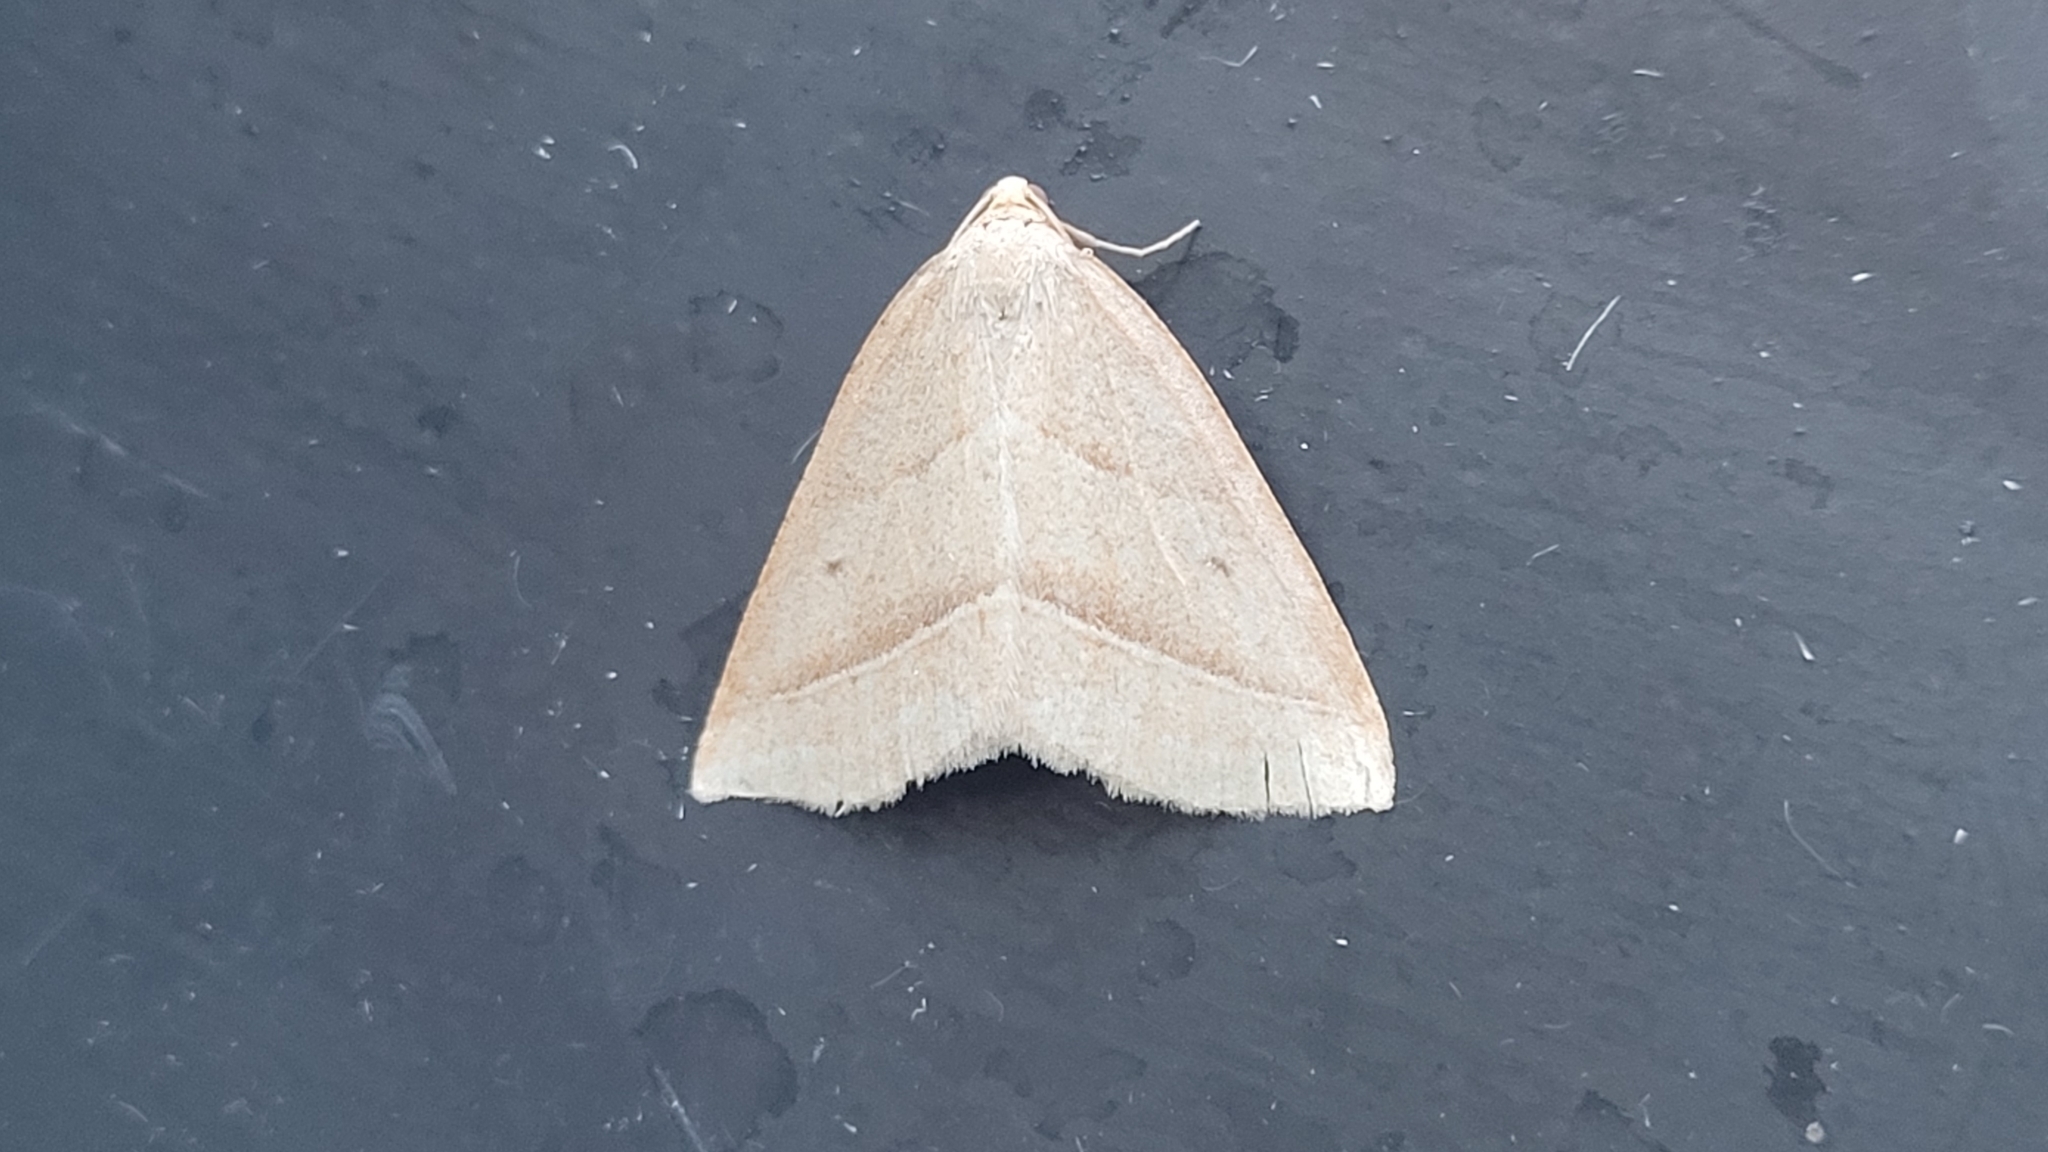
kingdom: Animalia
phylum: Arthropoda
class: Insecta
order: Lepidoptera
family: Pterophoridae
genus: Pterophorus
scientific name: Pterophorus Petrophora chlorosata
